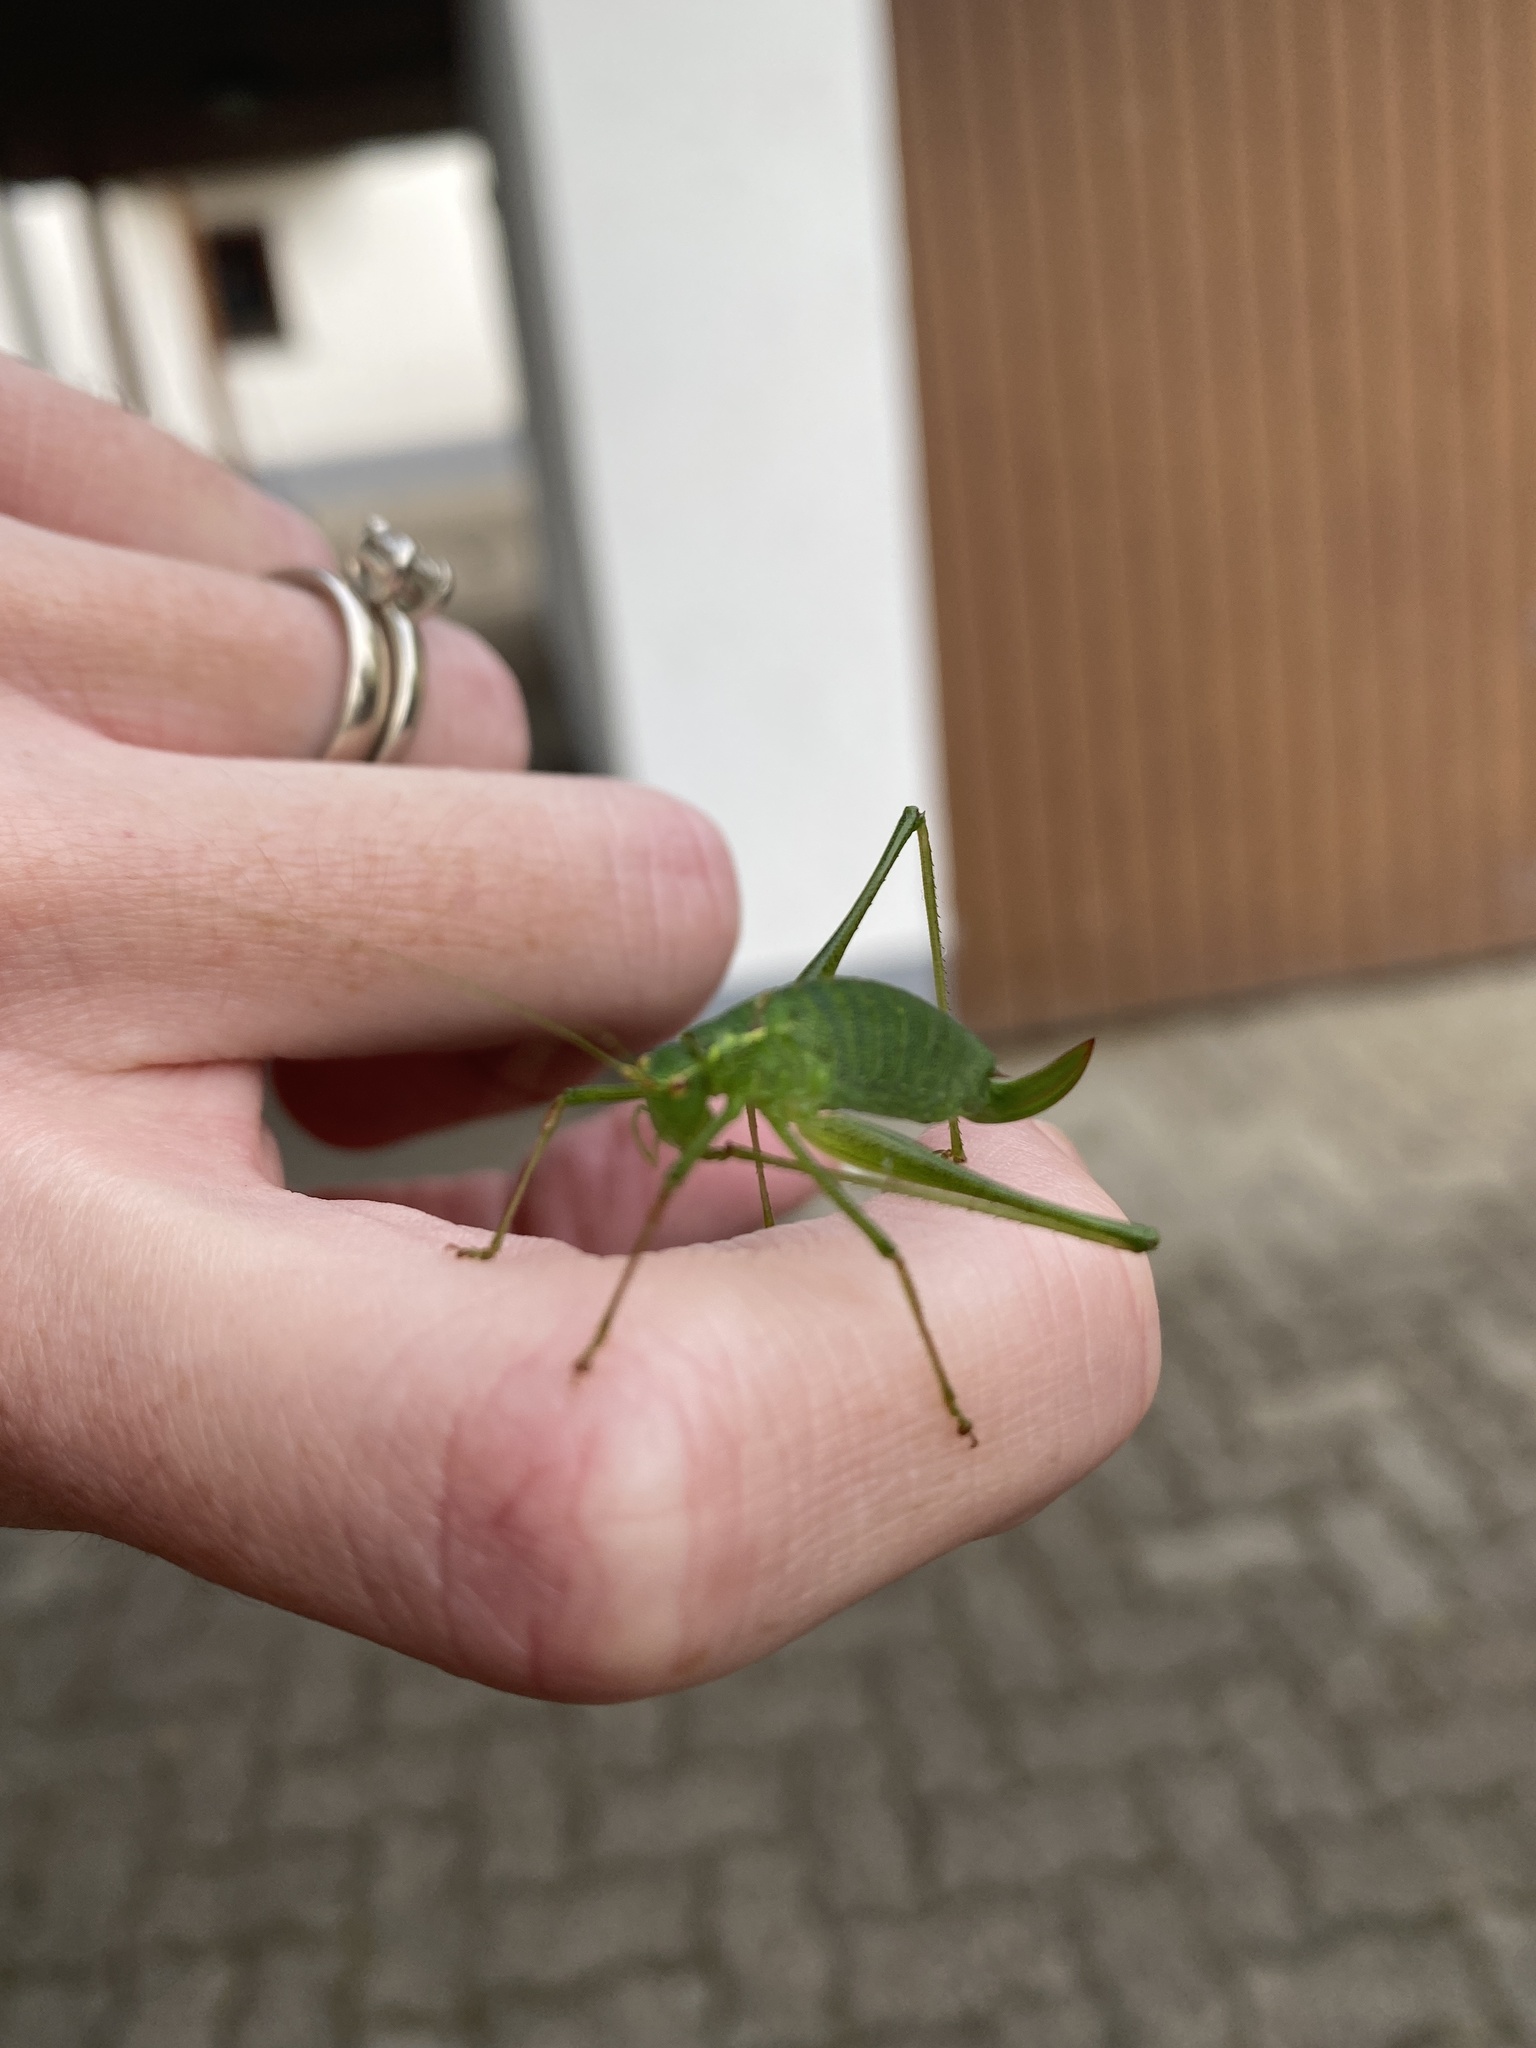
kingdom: Animalia
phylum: Arthropoda
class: Insecta
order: Orthoptera
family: Tettigoniidae
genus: Leptophyes
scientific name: Leptophyes punctatissima
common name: Speckled bush-cricket
